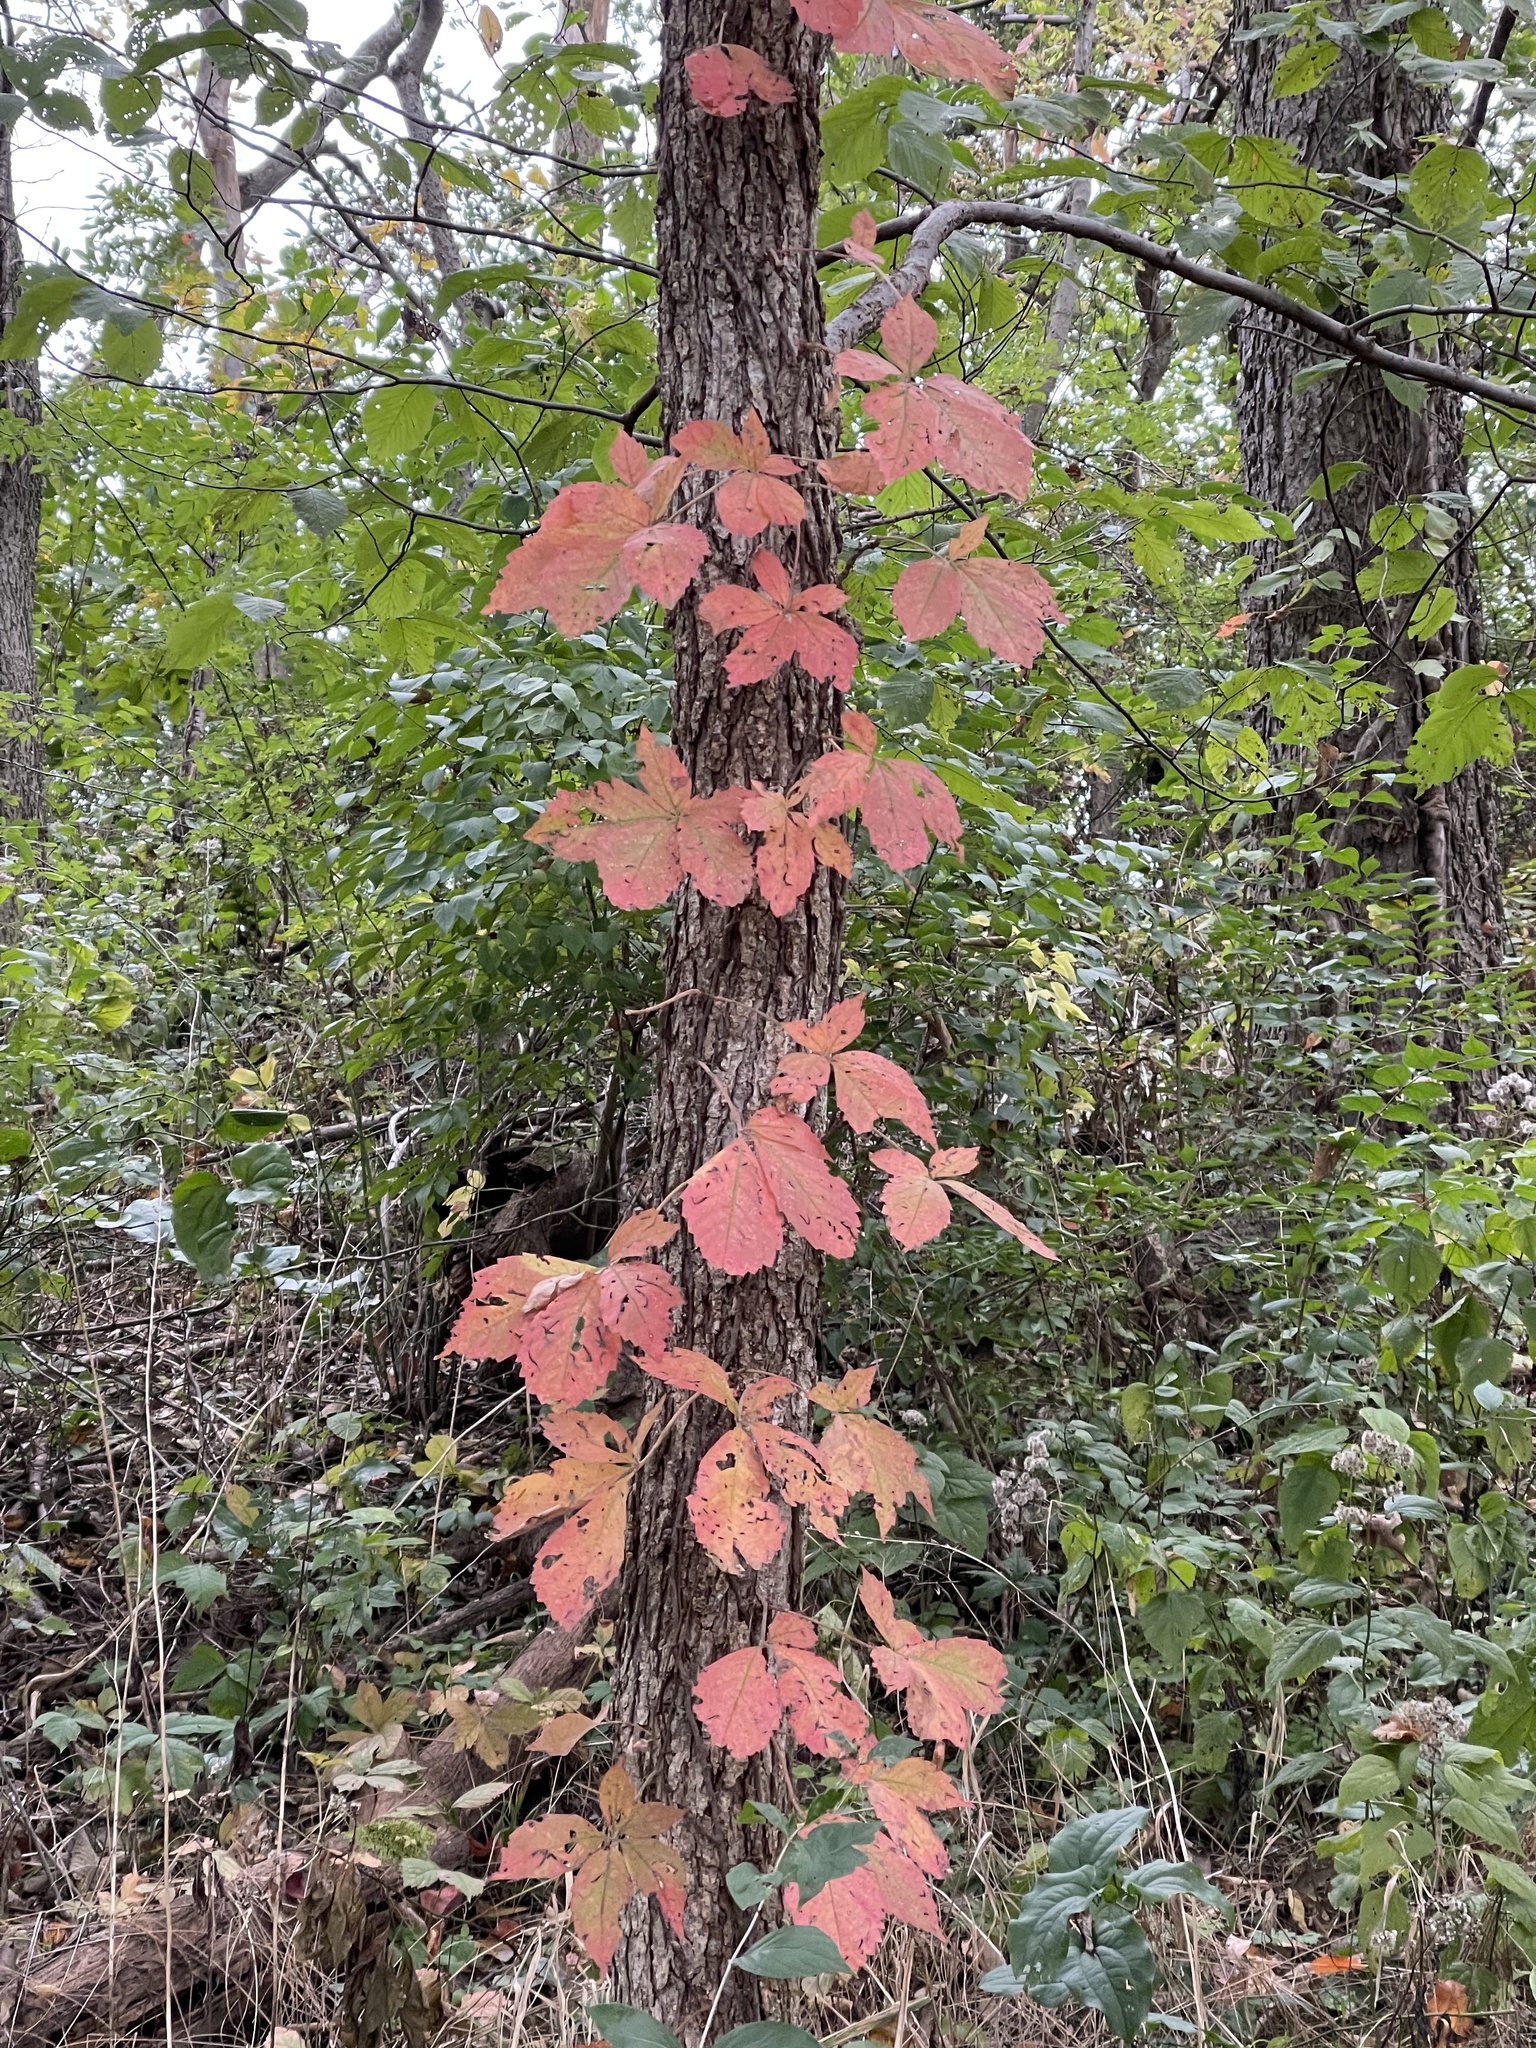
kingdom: Plantae
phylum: Tracheophyta
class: Magnoliopsida
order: Sapindales
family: Anacardiaceae
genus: Toxicodendron
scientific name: Toxicodendron radicans
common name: Poison ivy
